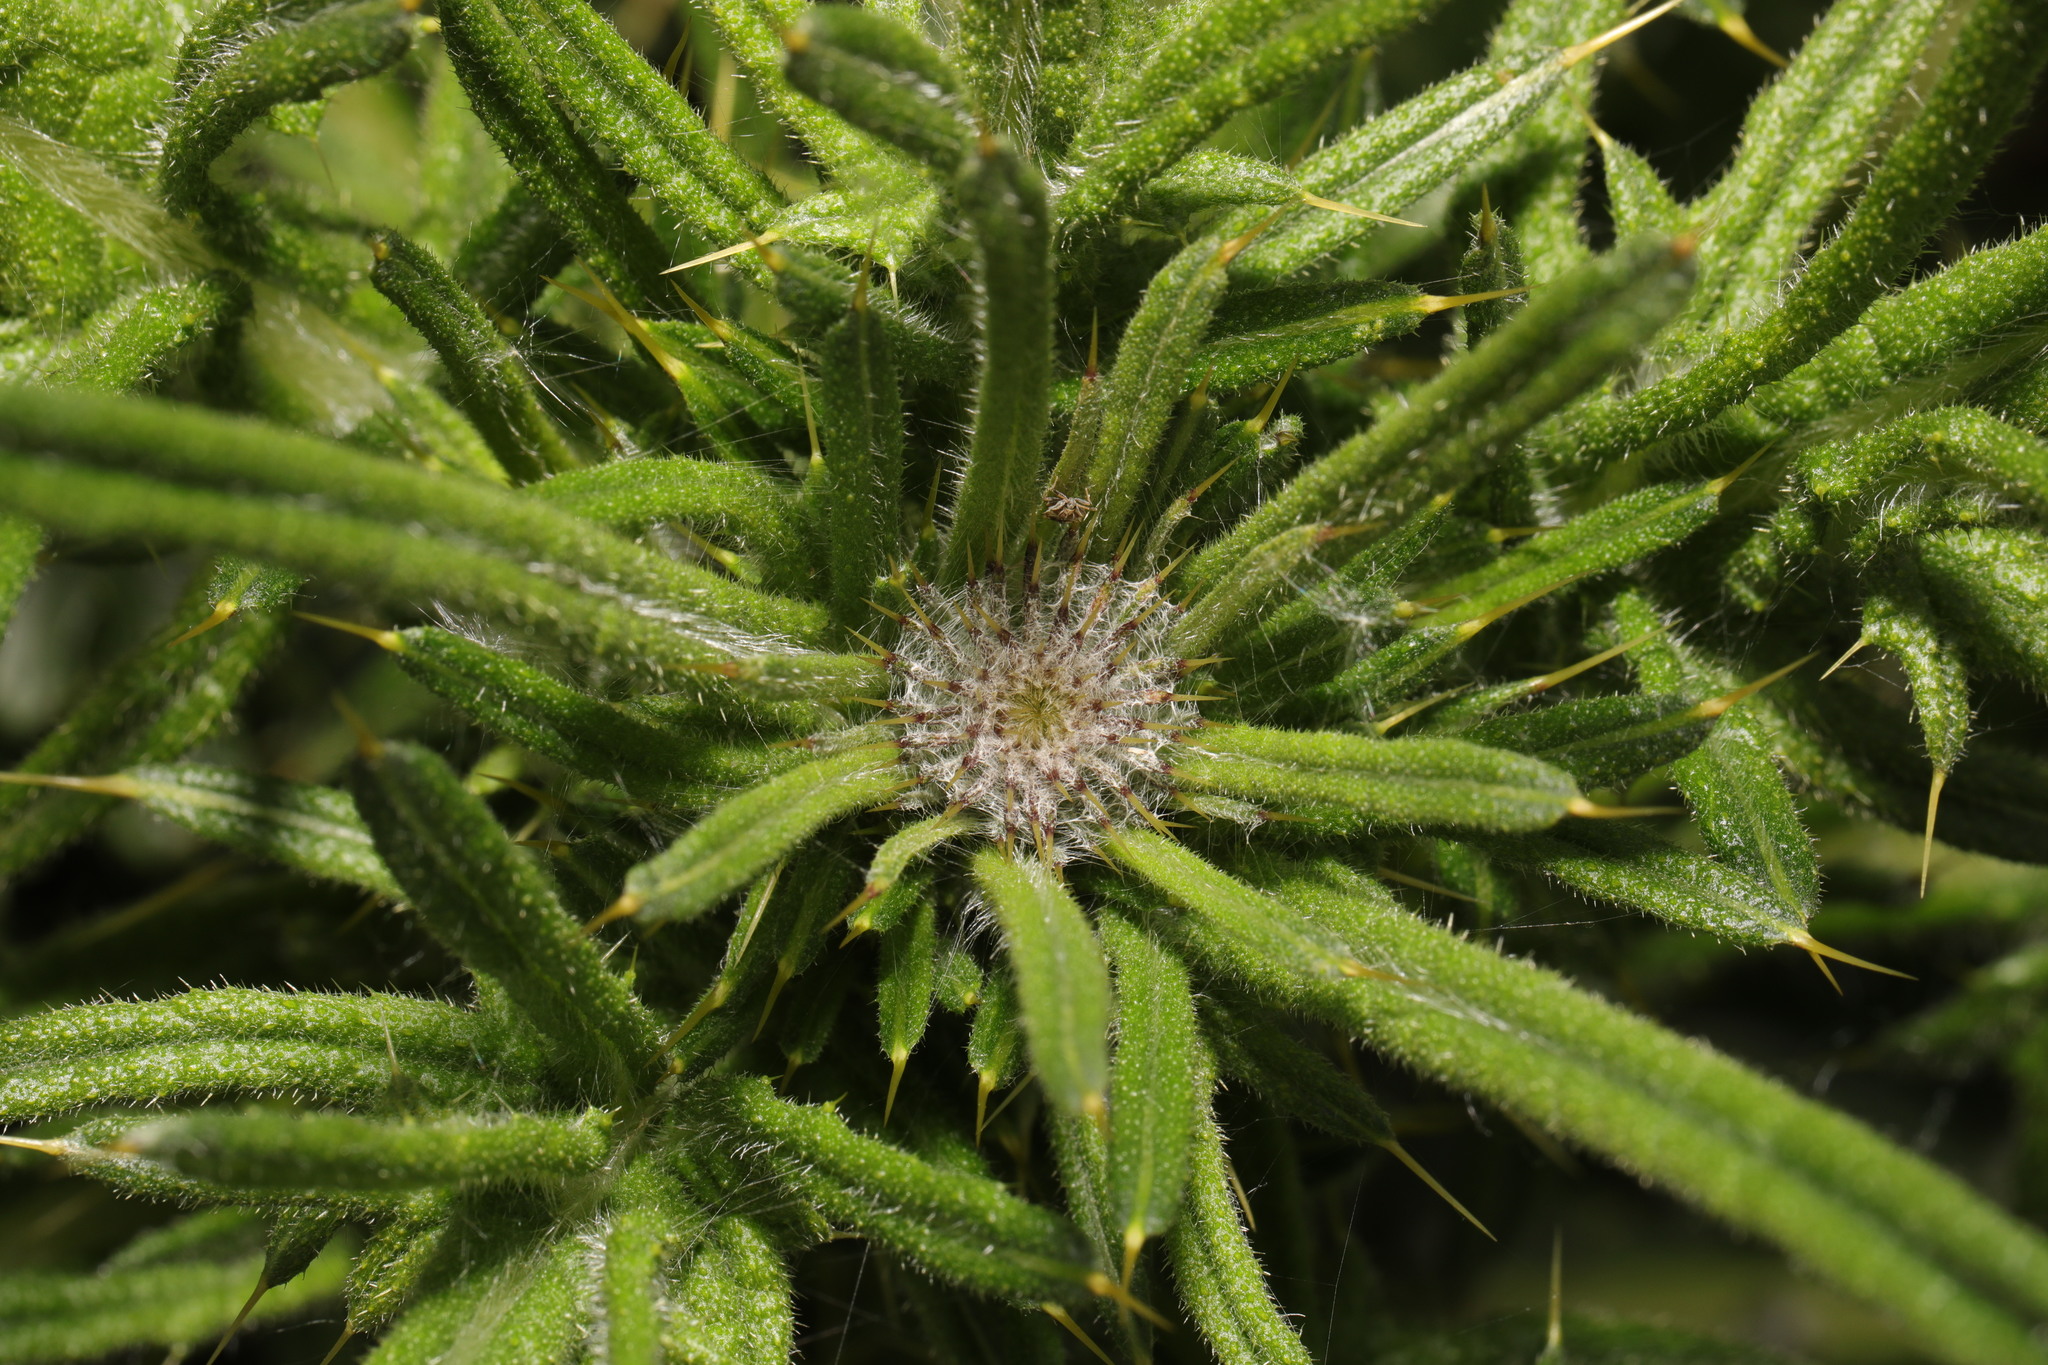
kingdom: Plantae
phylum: Tracheophyta
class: Magnoliopsida
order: Asterales
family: Asteraceae
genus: Cirsium
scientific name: Cirsium vulgare
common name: Bull thistle
